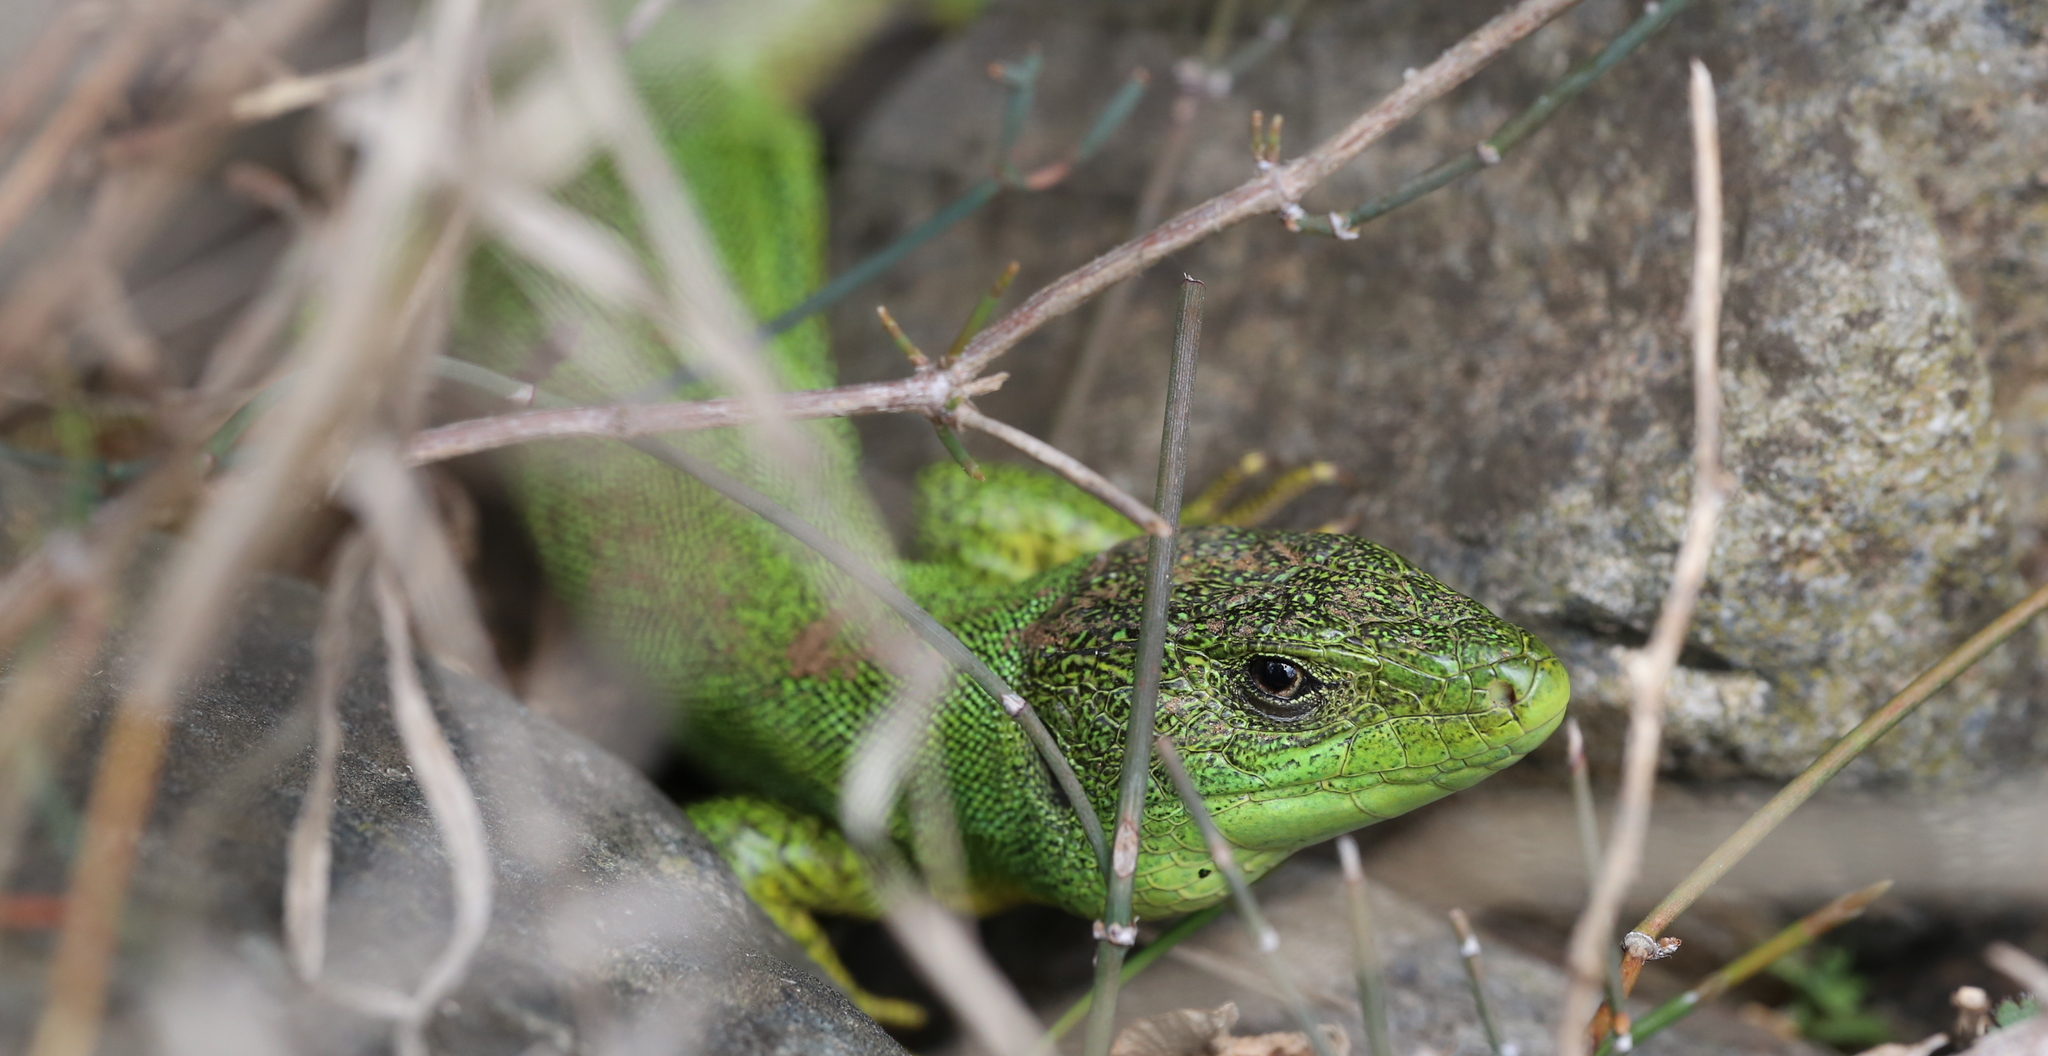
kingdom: Animalia
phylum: Chordata
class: Squamata
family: Lacertidae
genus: Lacerta
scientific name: Lacerta trilineata
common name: Balkan green lizard
